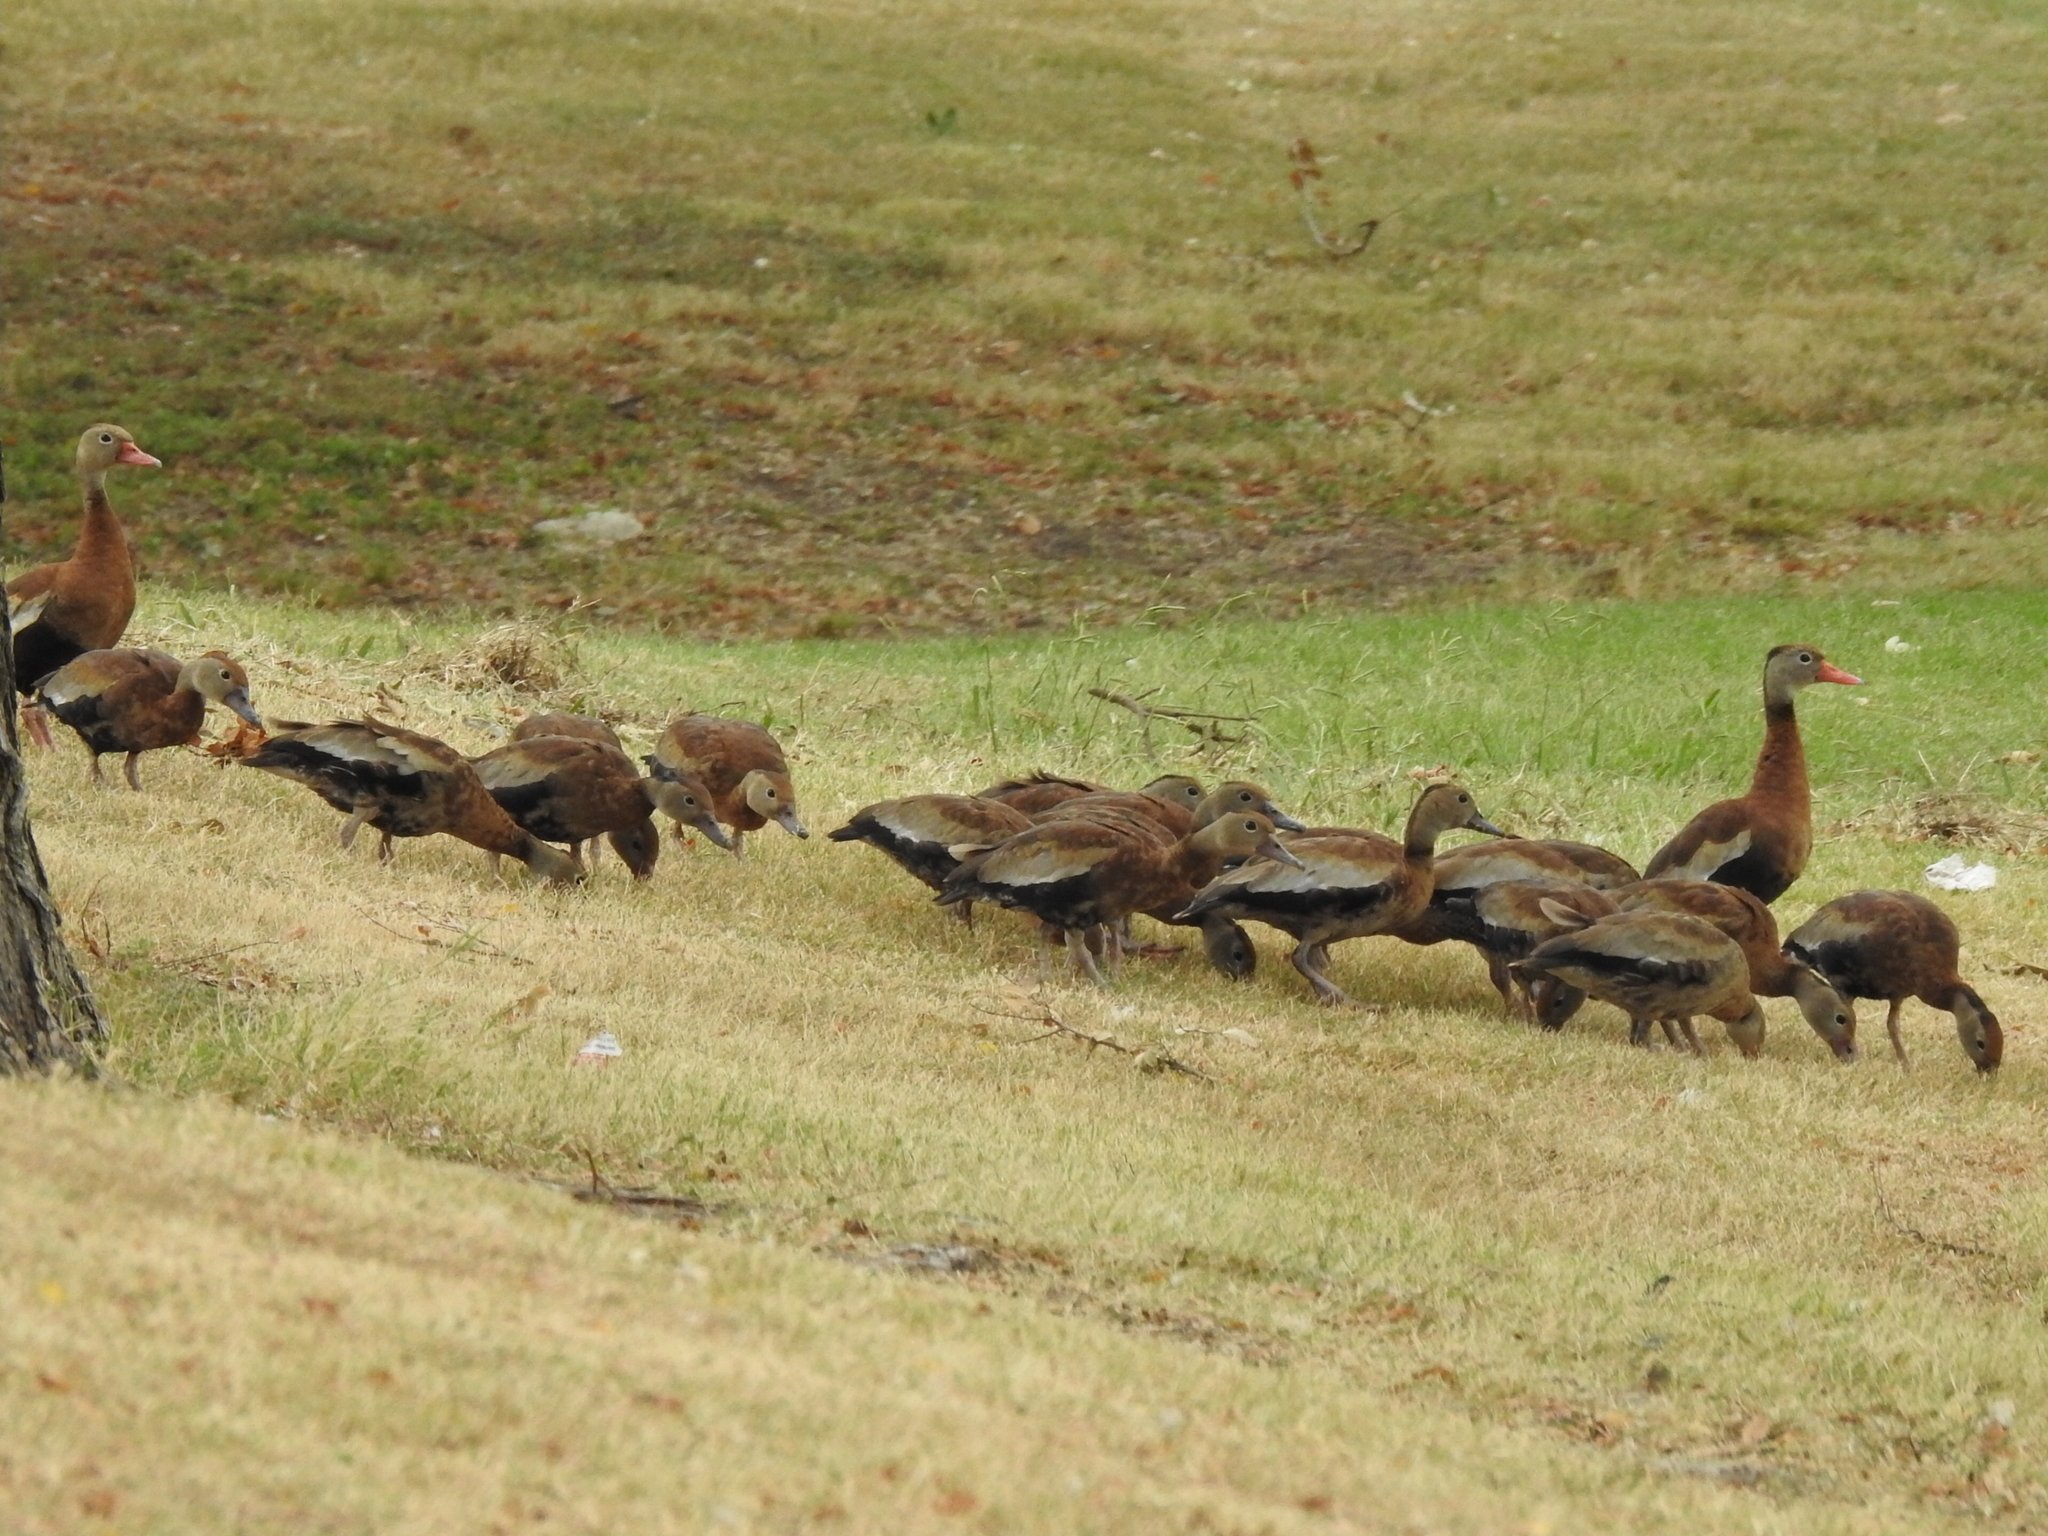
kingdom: Animalia
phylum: Chordata
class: Aves
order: Anseriformes
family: Anatidae
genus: Dendrocygna
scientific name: Dendrocygna autumnalis
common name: Black-bellied whistling duck
